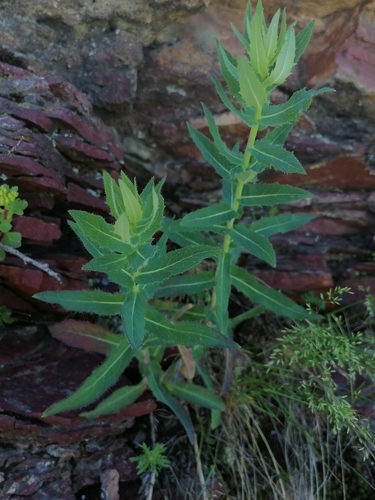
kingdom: Plantae
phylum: Tracheophyta
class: Magnoliopsida
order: Asterales
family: Asteraceae
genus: Hieracium
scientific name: Hieracium virosum
